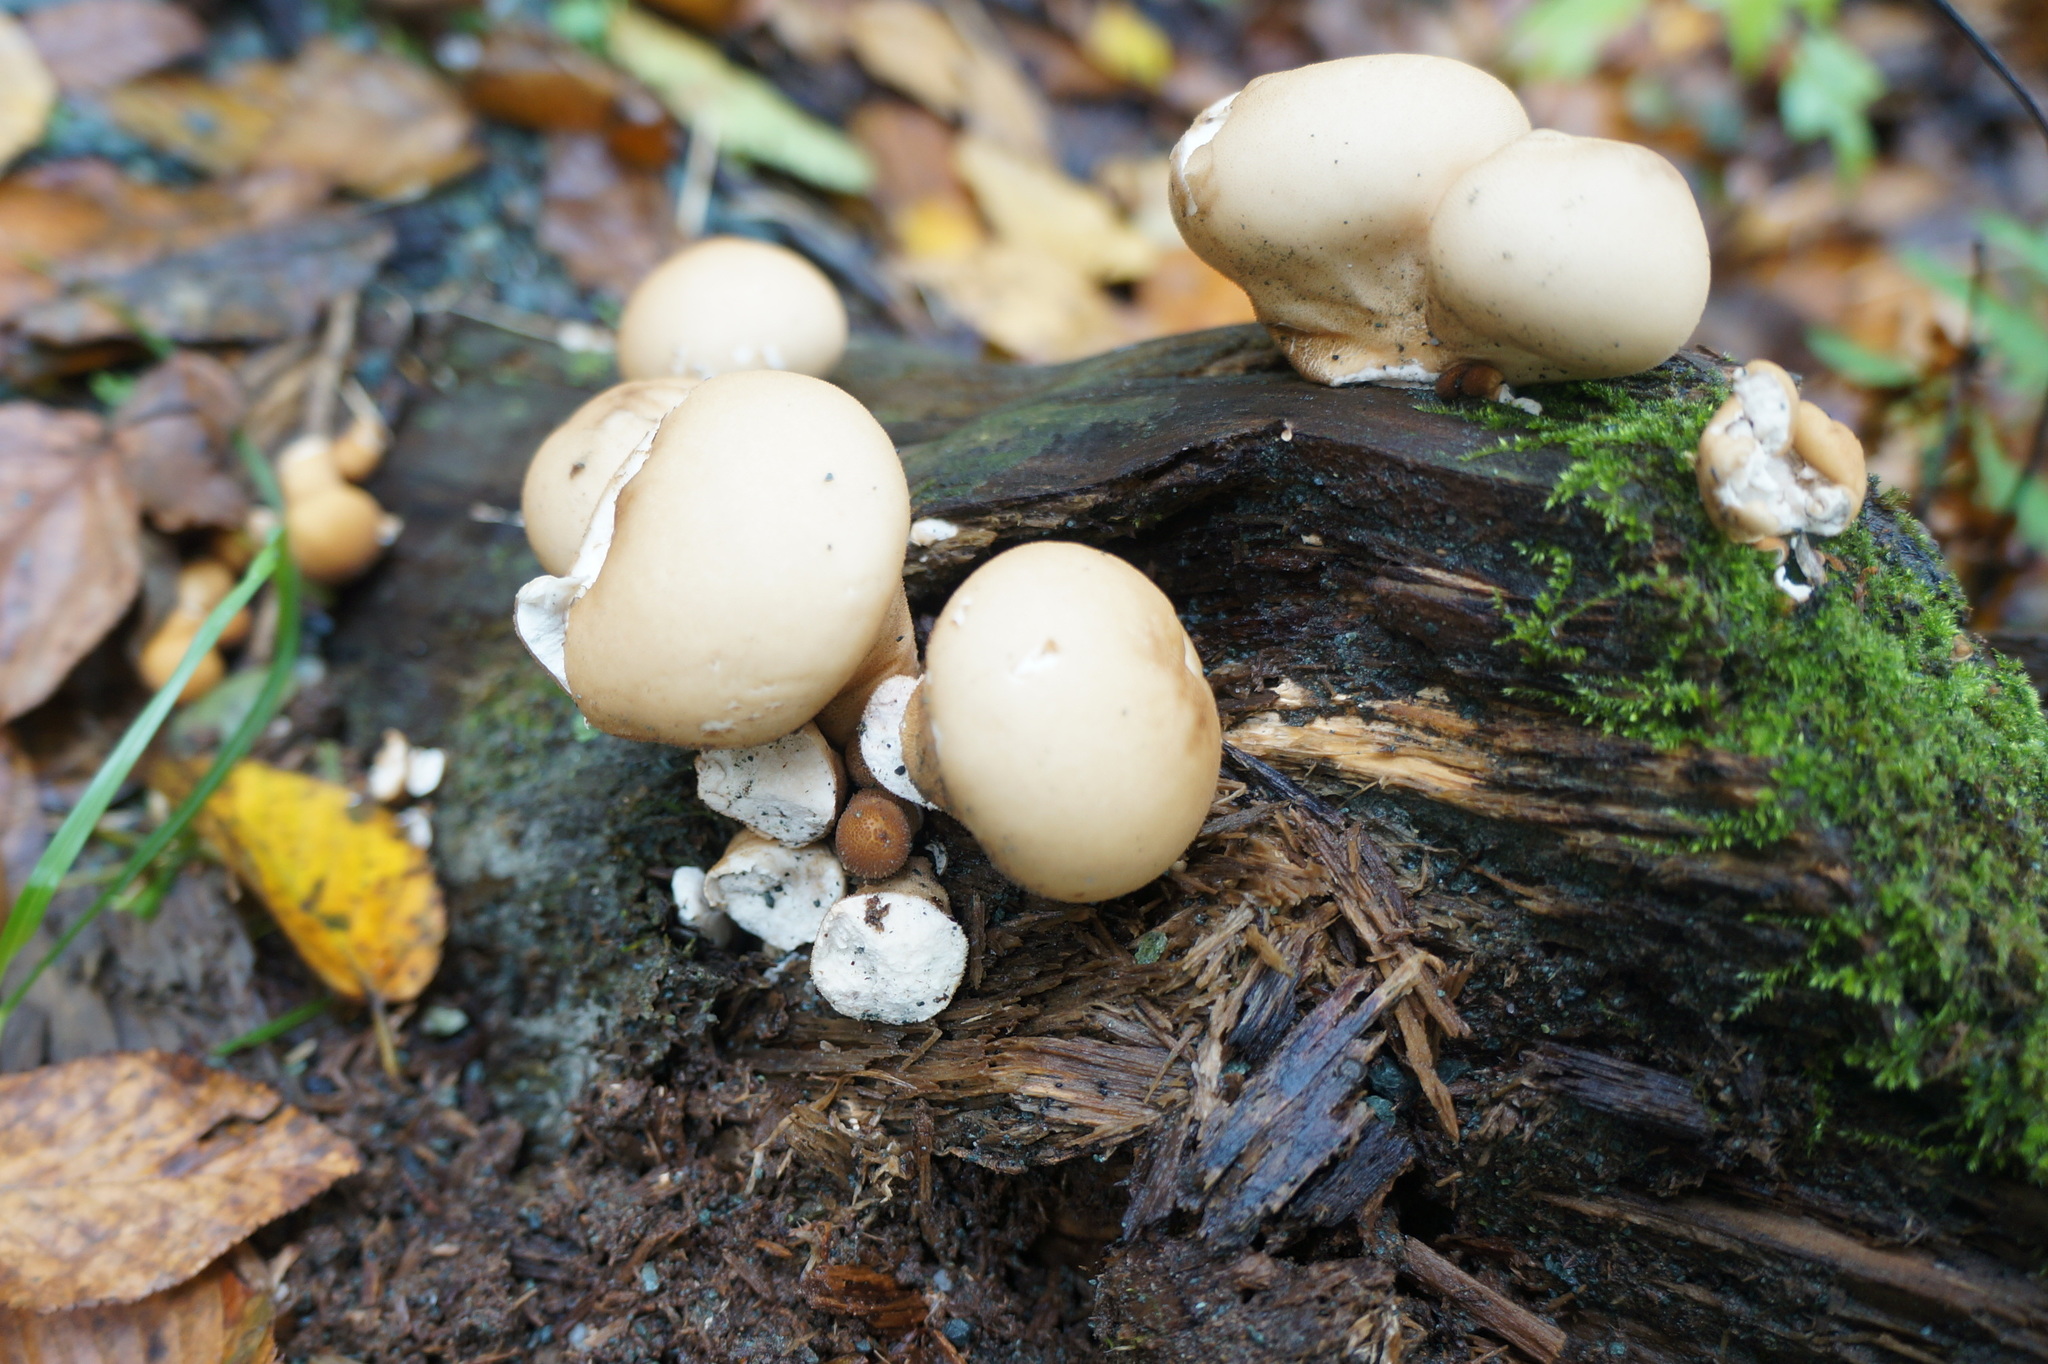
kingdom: Fungi
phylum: Basidiomycota
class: Agaricomycetes
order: Agaricales
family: Lycoperdaceae
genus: Apioperdon
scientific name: Apioperdon pyriforme
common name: Pear-shaped puffball
